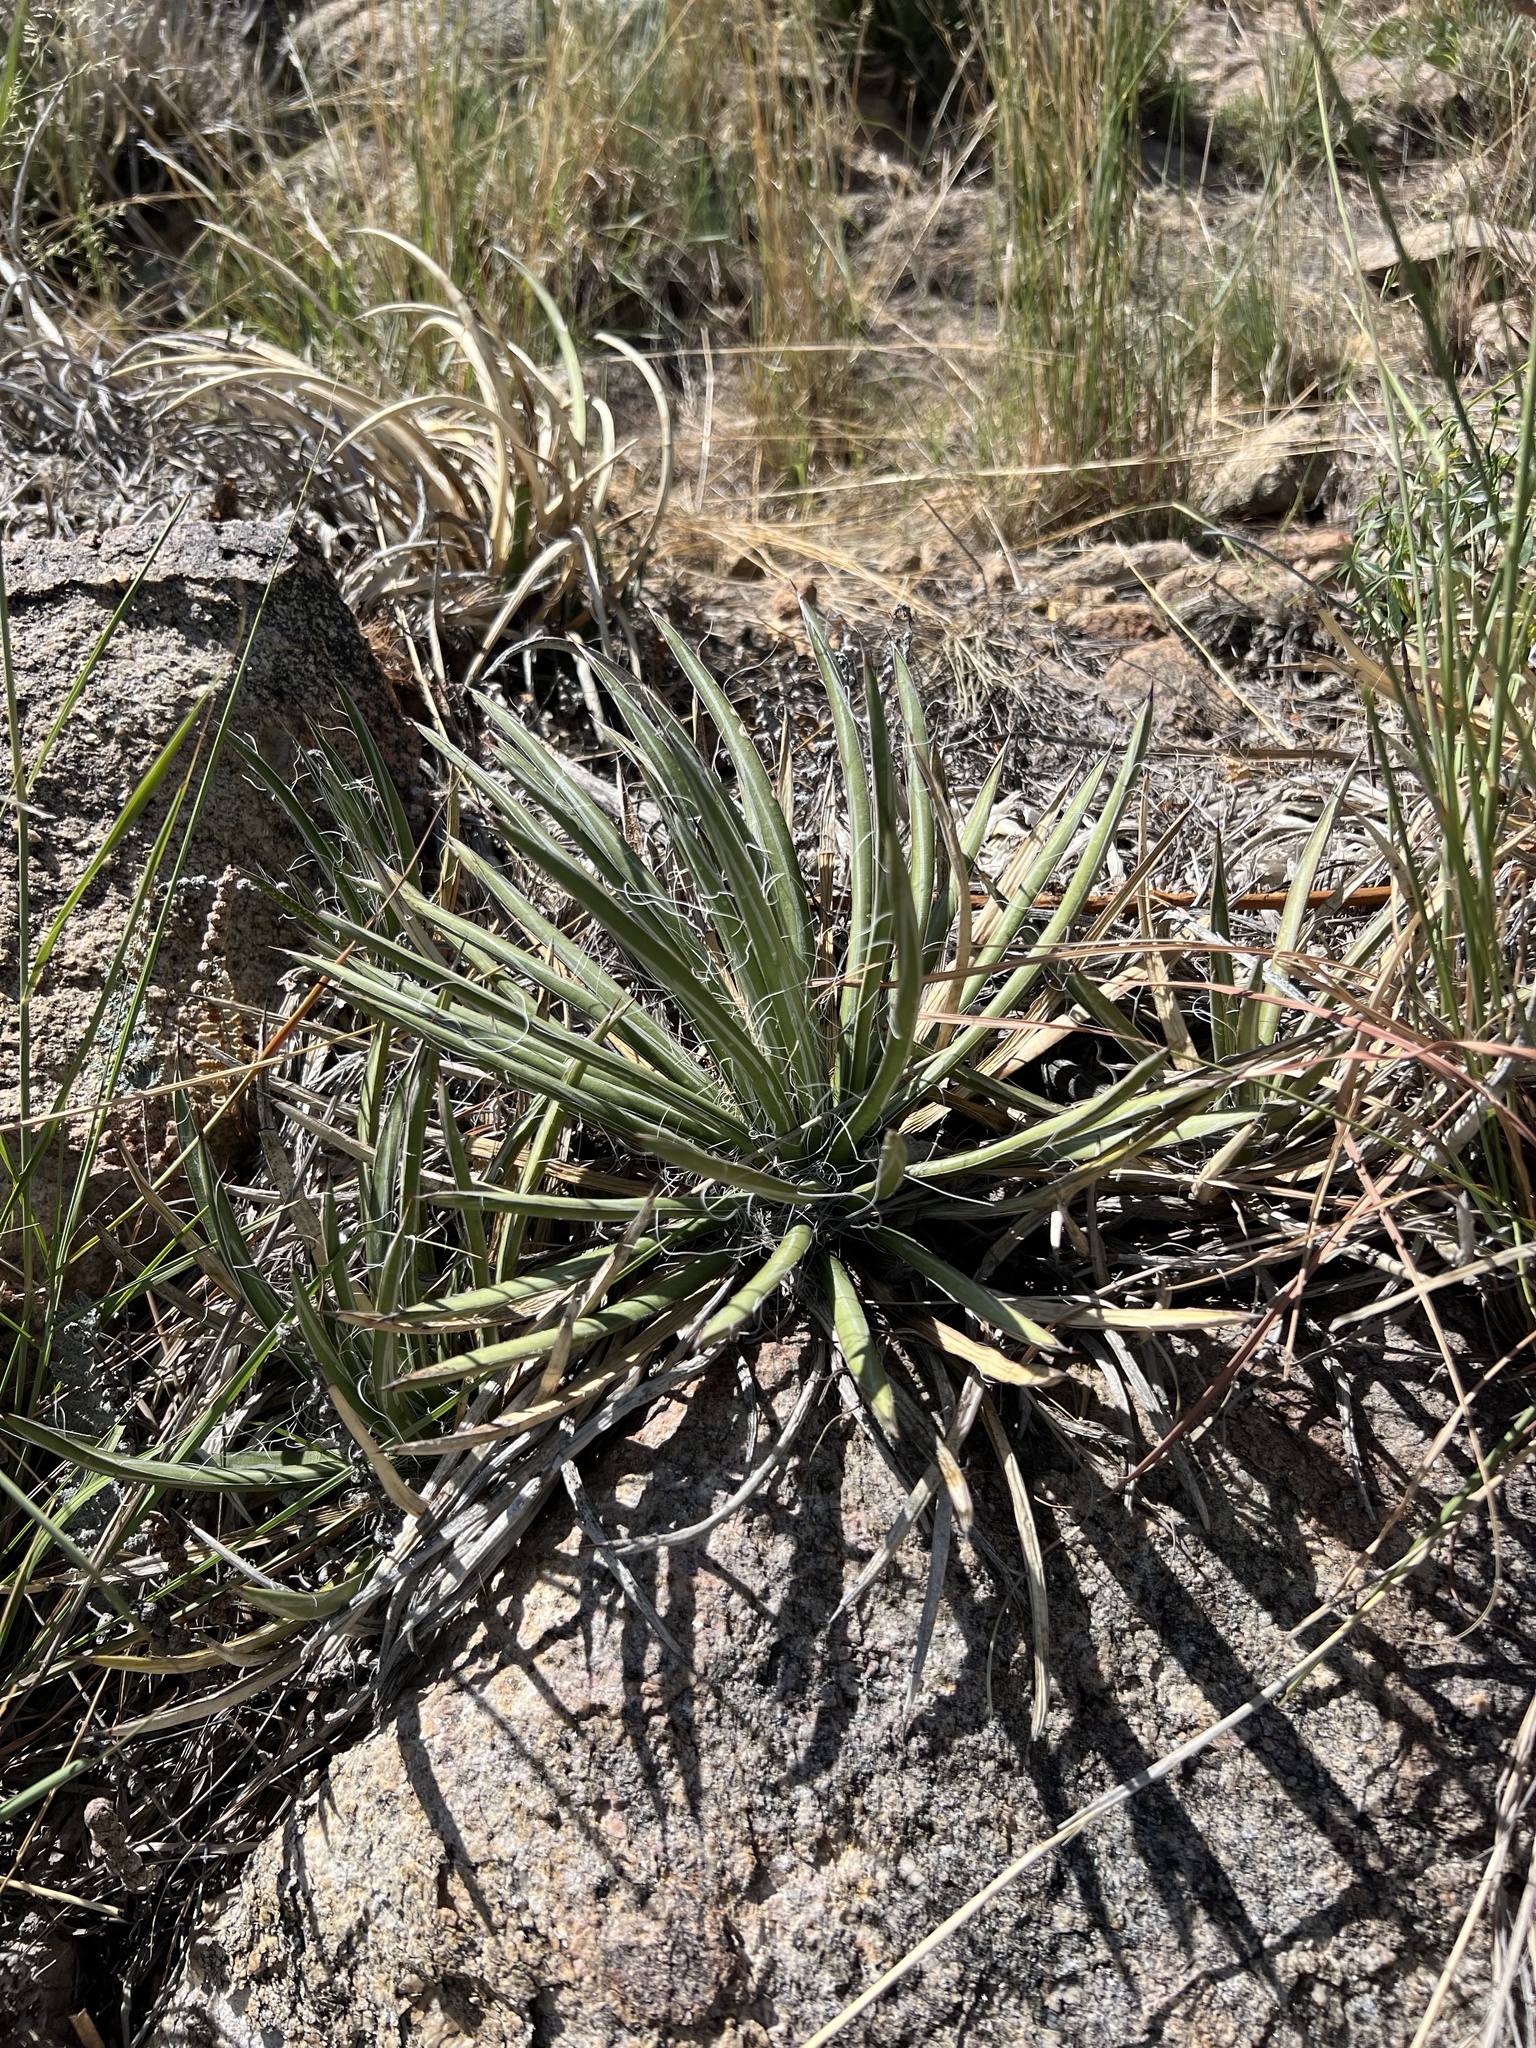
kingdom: Plantae
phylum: Tracheophyta
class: Liliopsida
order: Asparagales
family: Asparagaceae
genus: Agave
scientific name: Agave schottii
